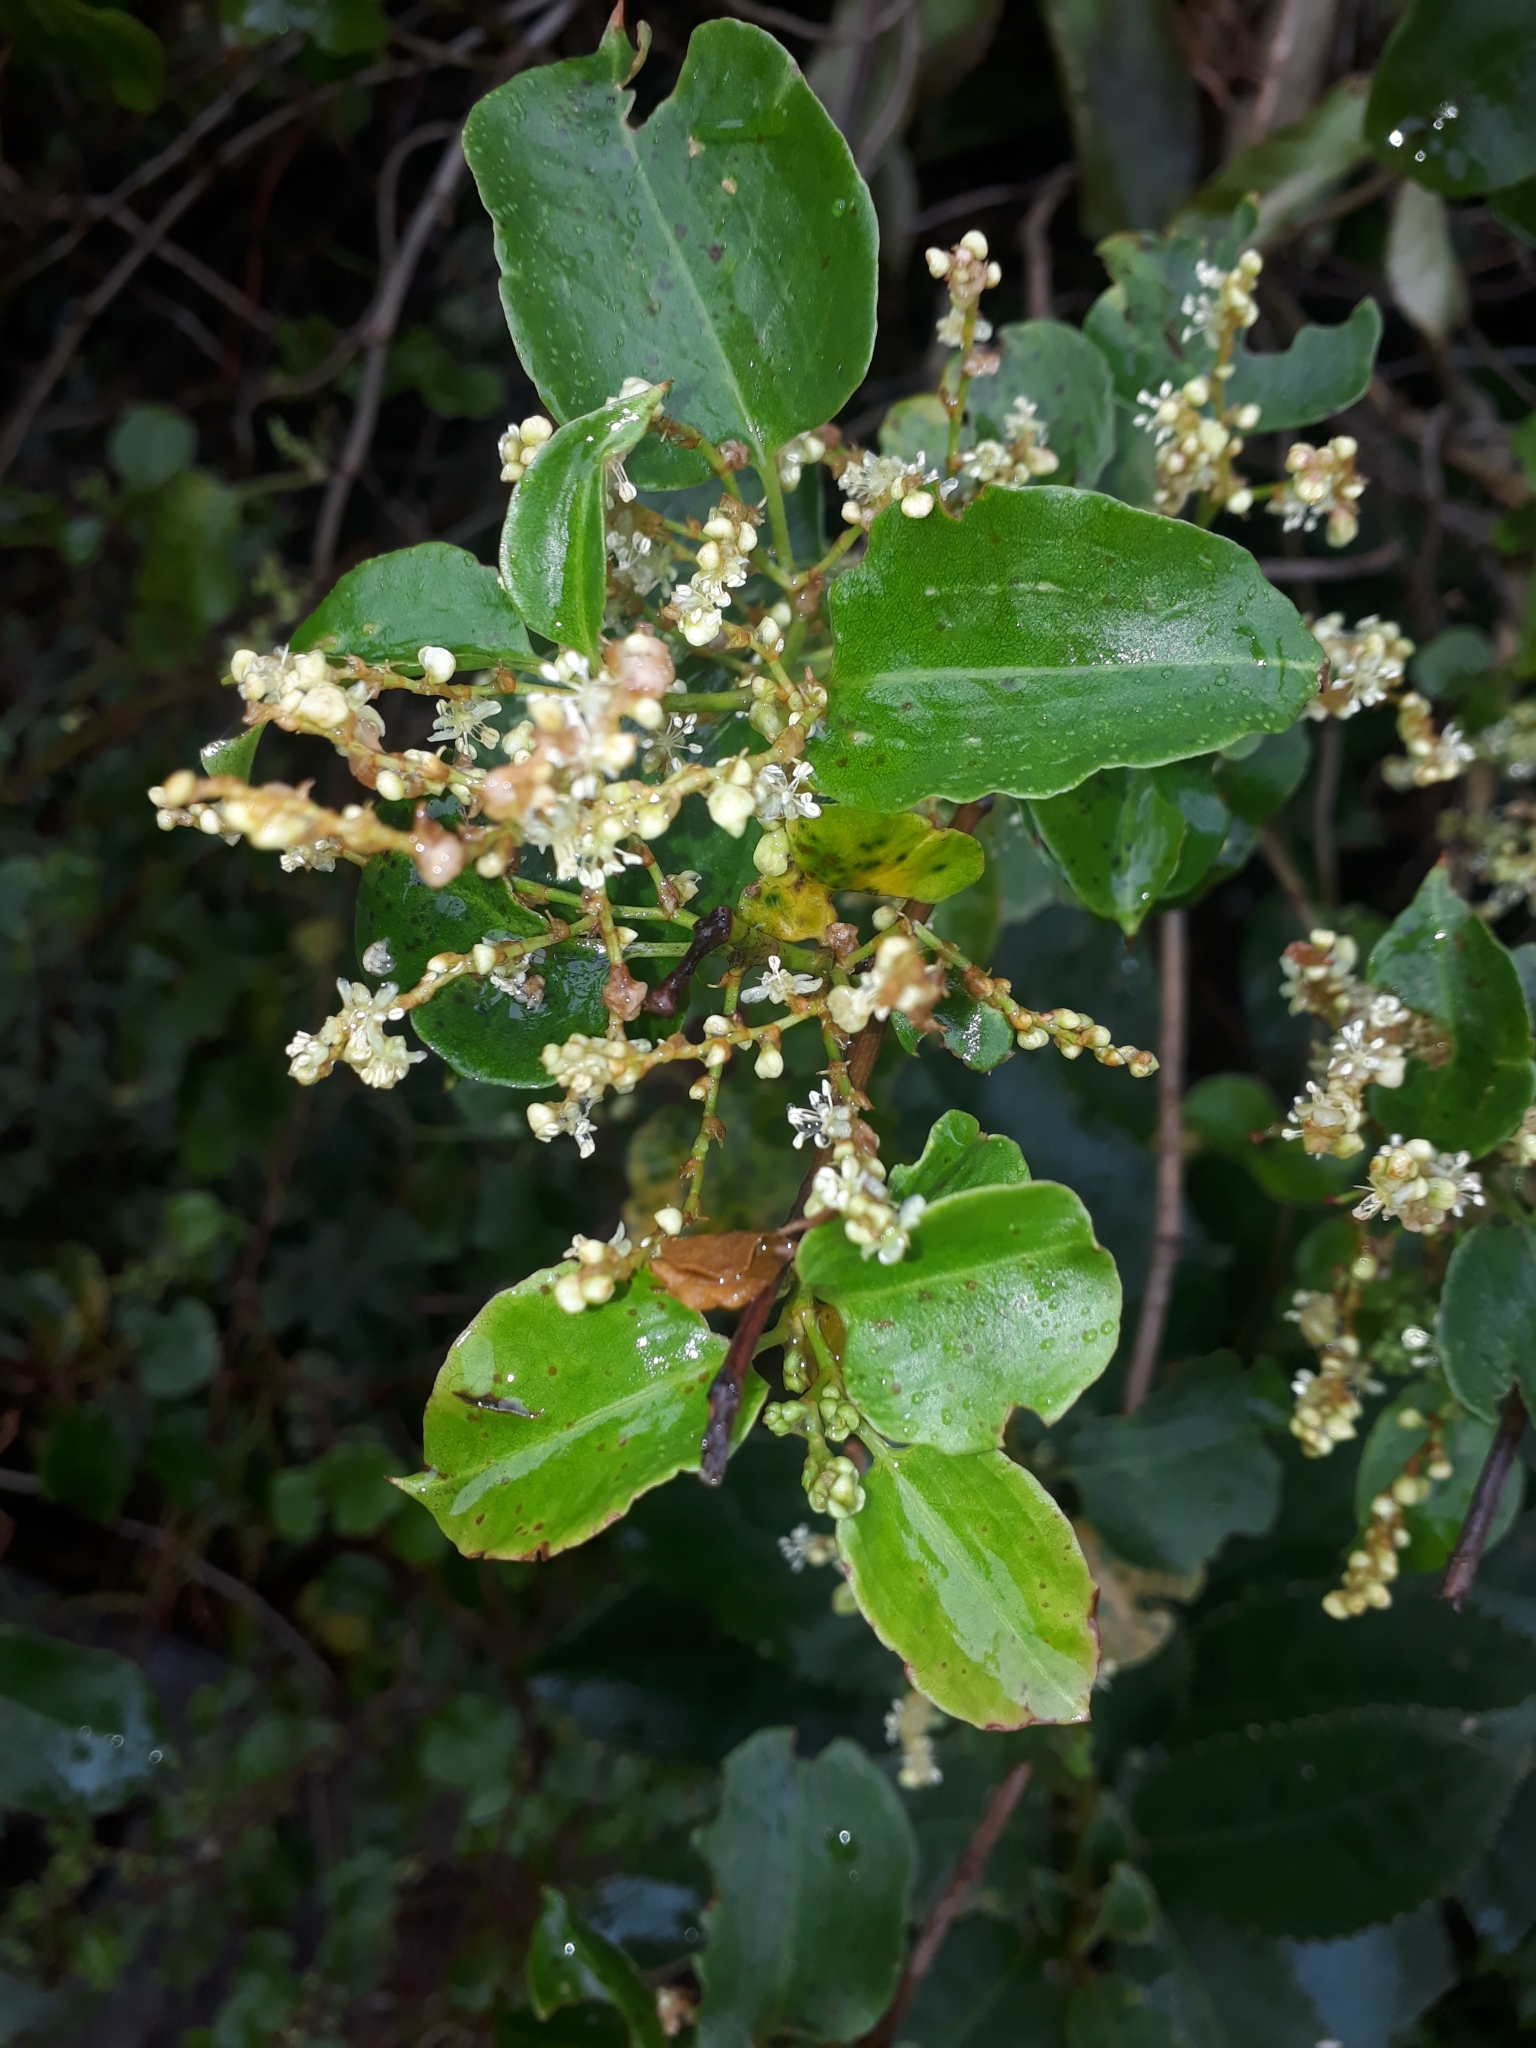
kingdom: Plantae
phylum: Tracheophyta
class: Magnoliopsida
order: Caryophyllales
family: Polygonaceae
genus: Muehlenbeckia
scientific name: Muehlenbeckia australis
